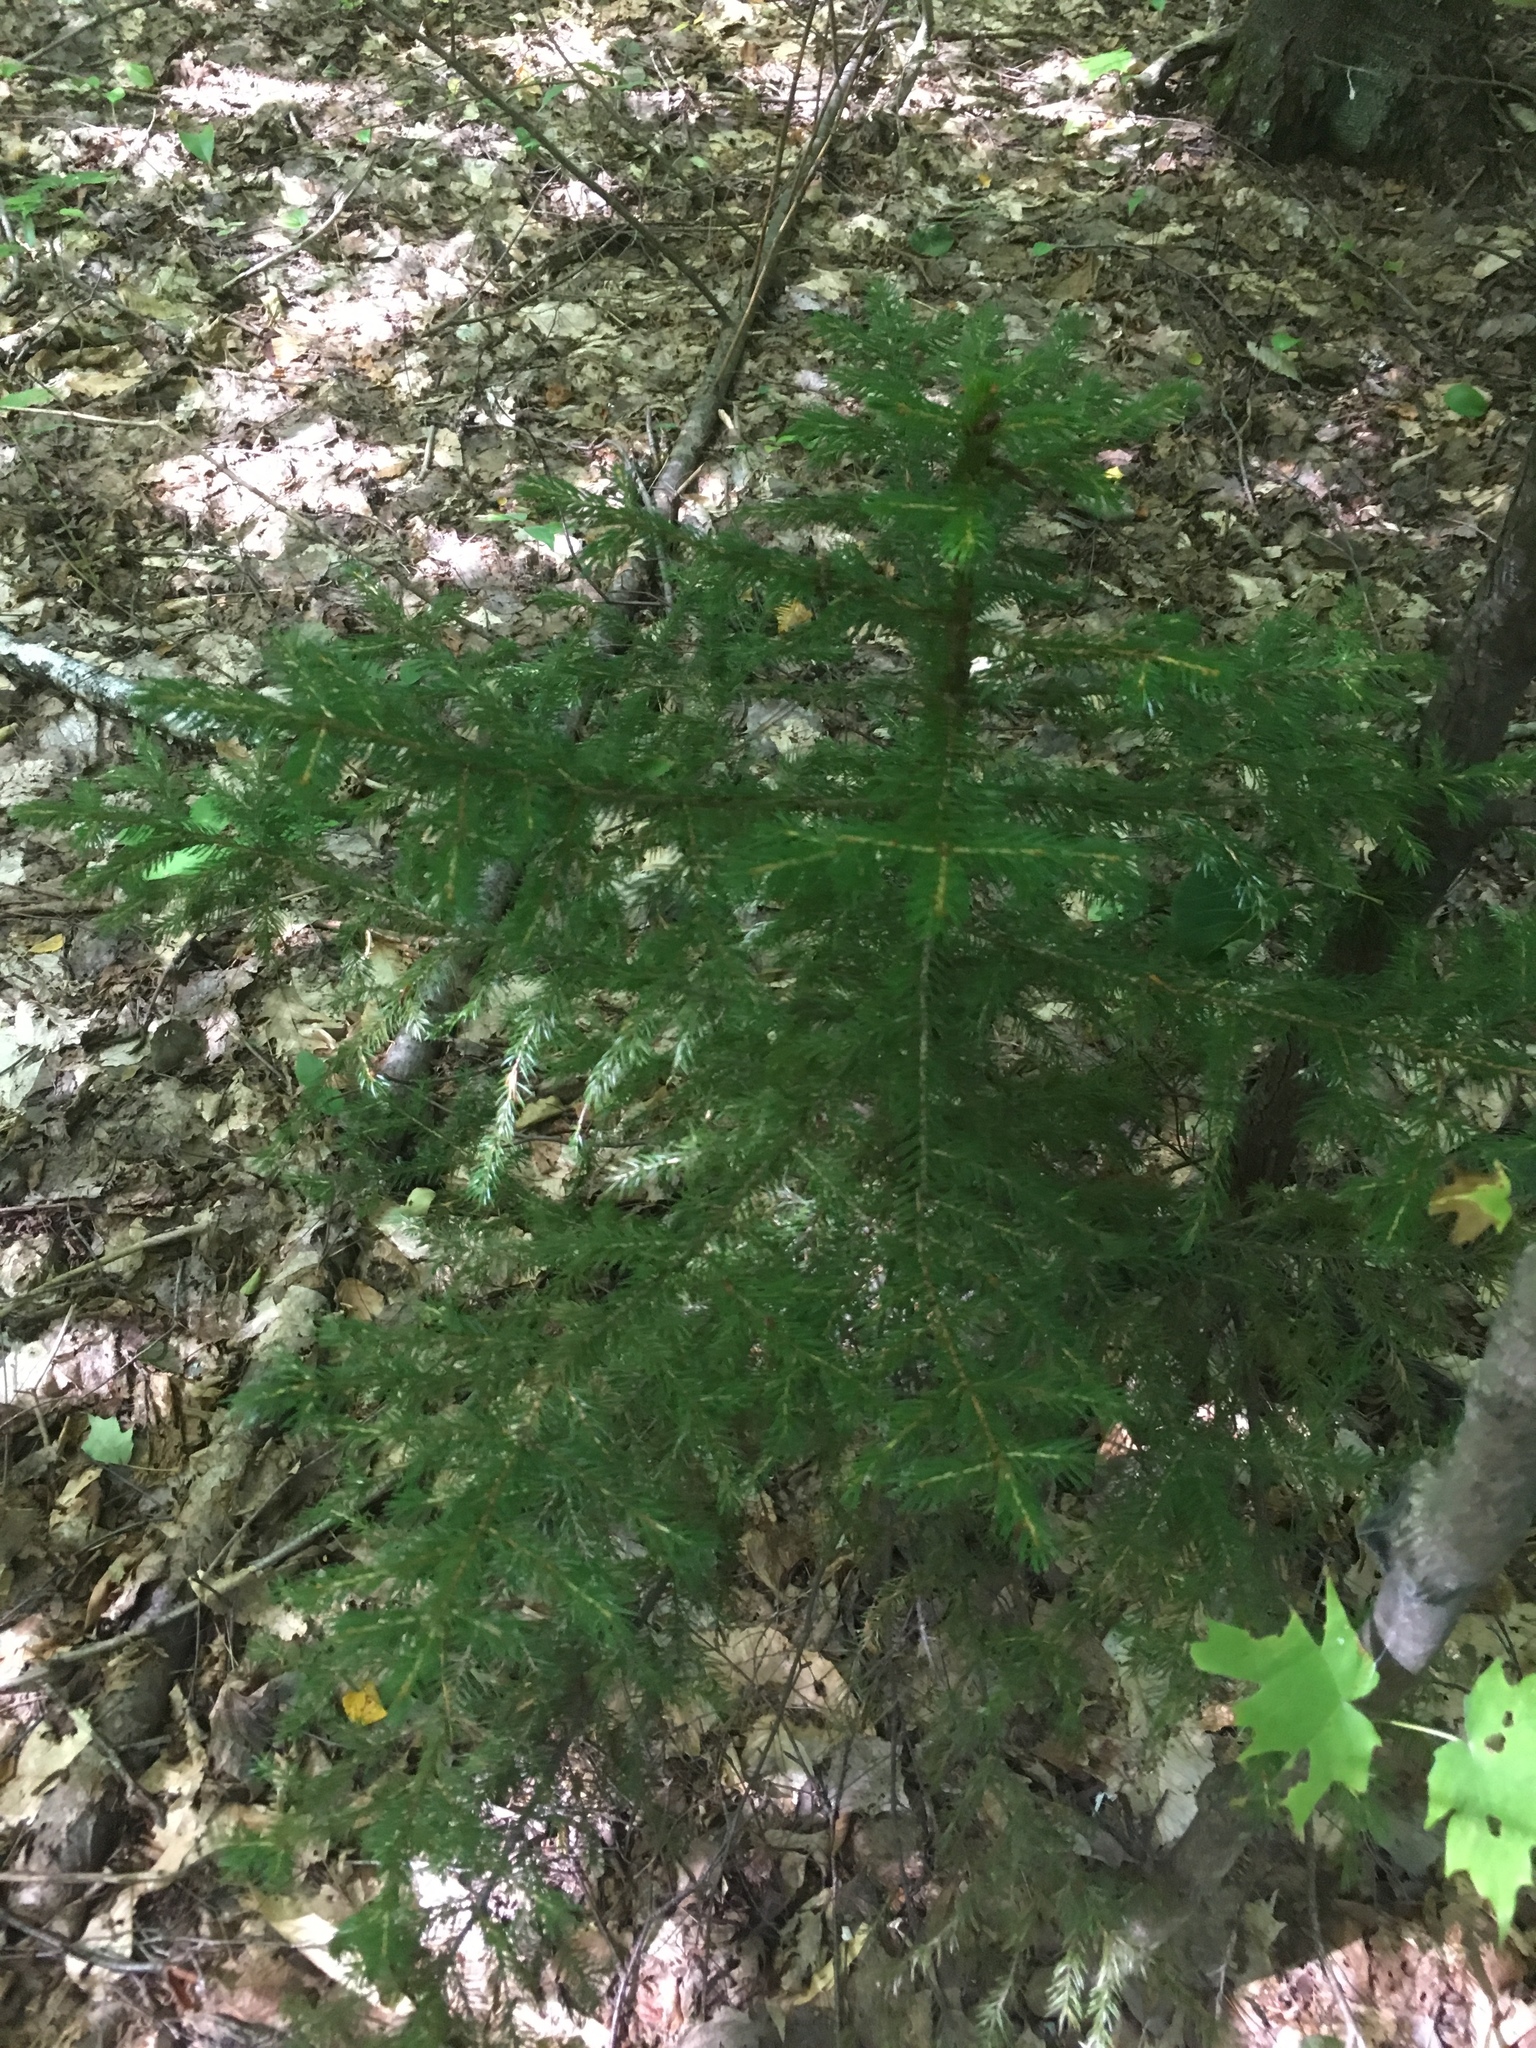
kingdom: Plantae
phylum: Tracheophyta
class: Pinopsida
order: Pinales
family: Pinaceae
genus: Picea
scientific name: Picea rubens
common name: Red spruce
